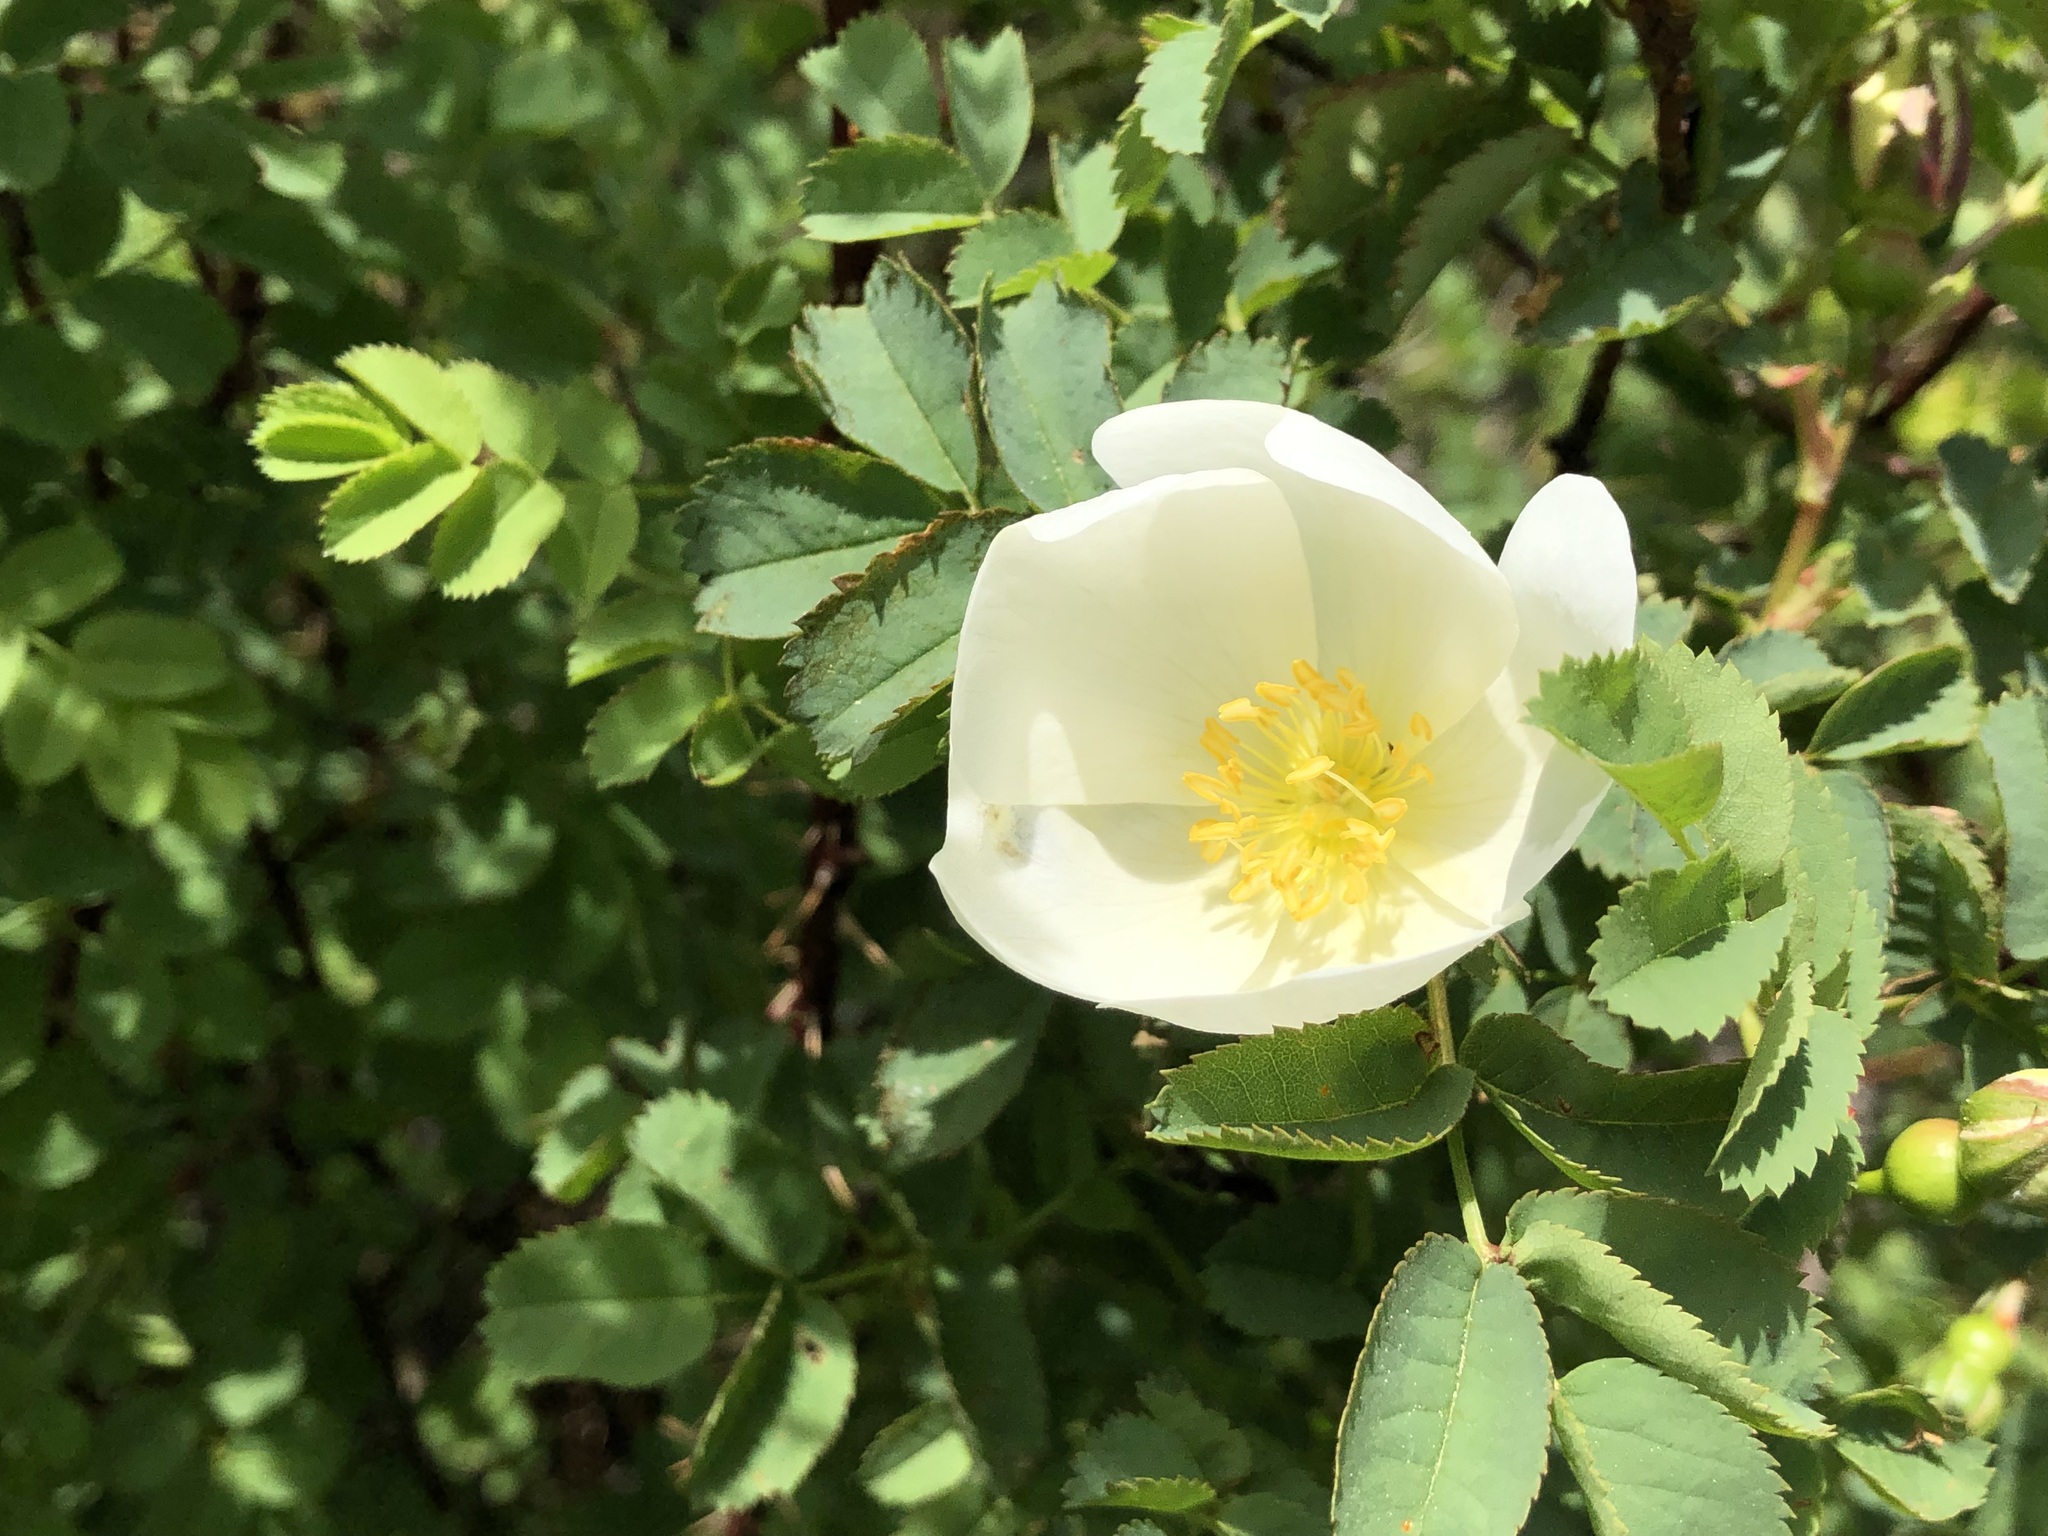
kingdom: Plantae
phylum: Tracheophyta
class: Magnoliopsida
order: Rosales
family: Rosaceae
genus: Rosa
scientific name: Rosa spinosissima
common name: Burnet rose
